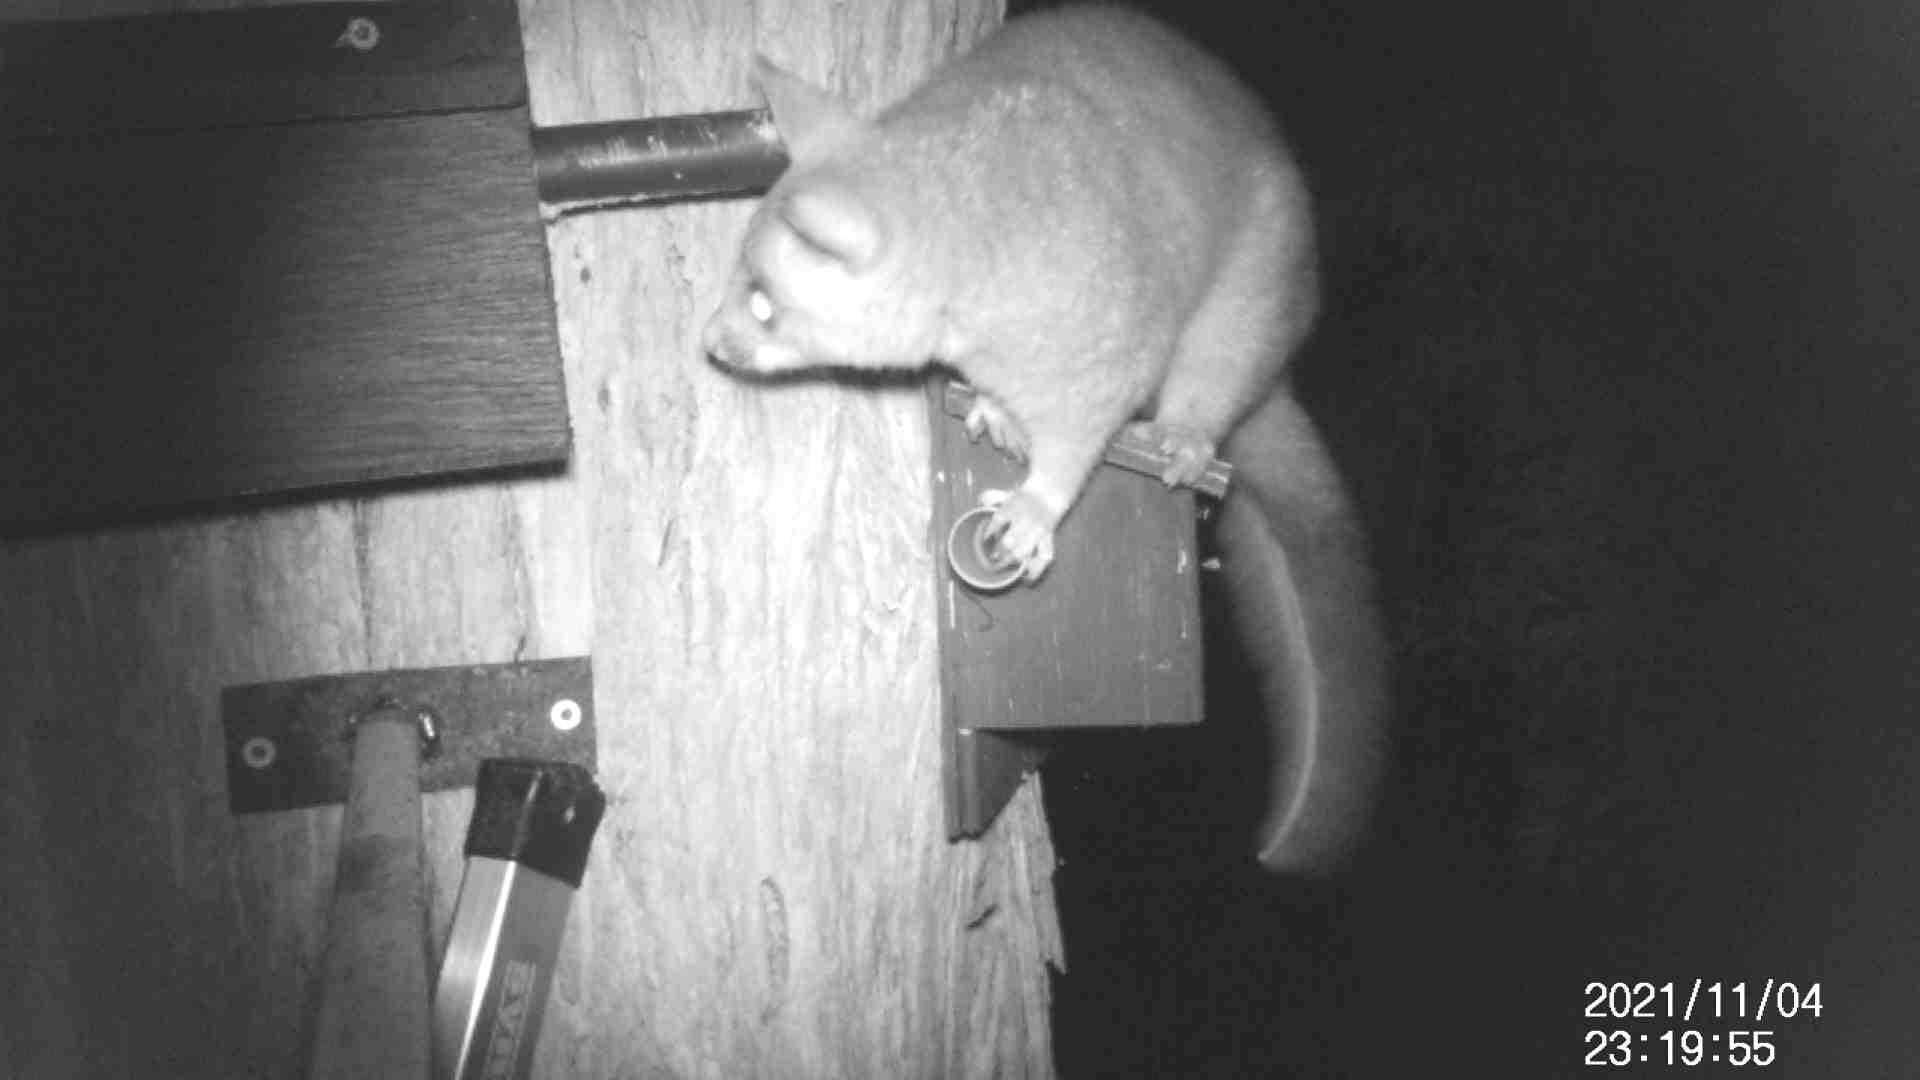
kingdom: Animalia
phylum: Chordata
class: Mammalia
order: Diprotodontia
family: Phalangeridae
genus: Trichosurus
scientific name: Trichosurus vulpecula
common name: Common brushtail
